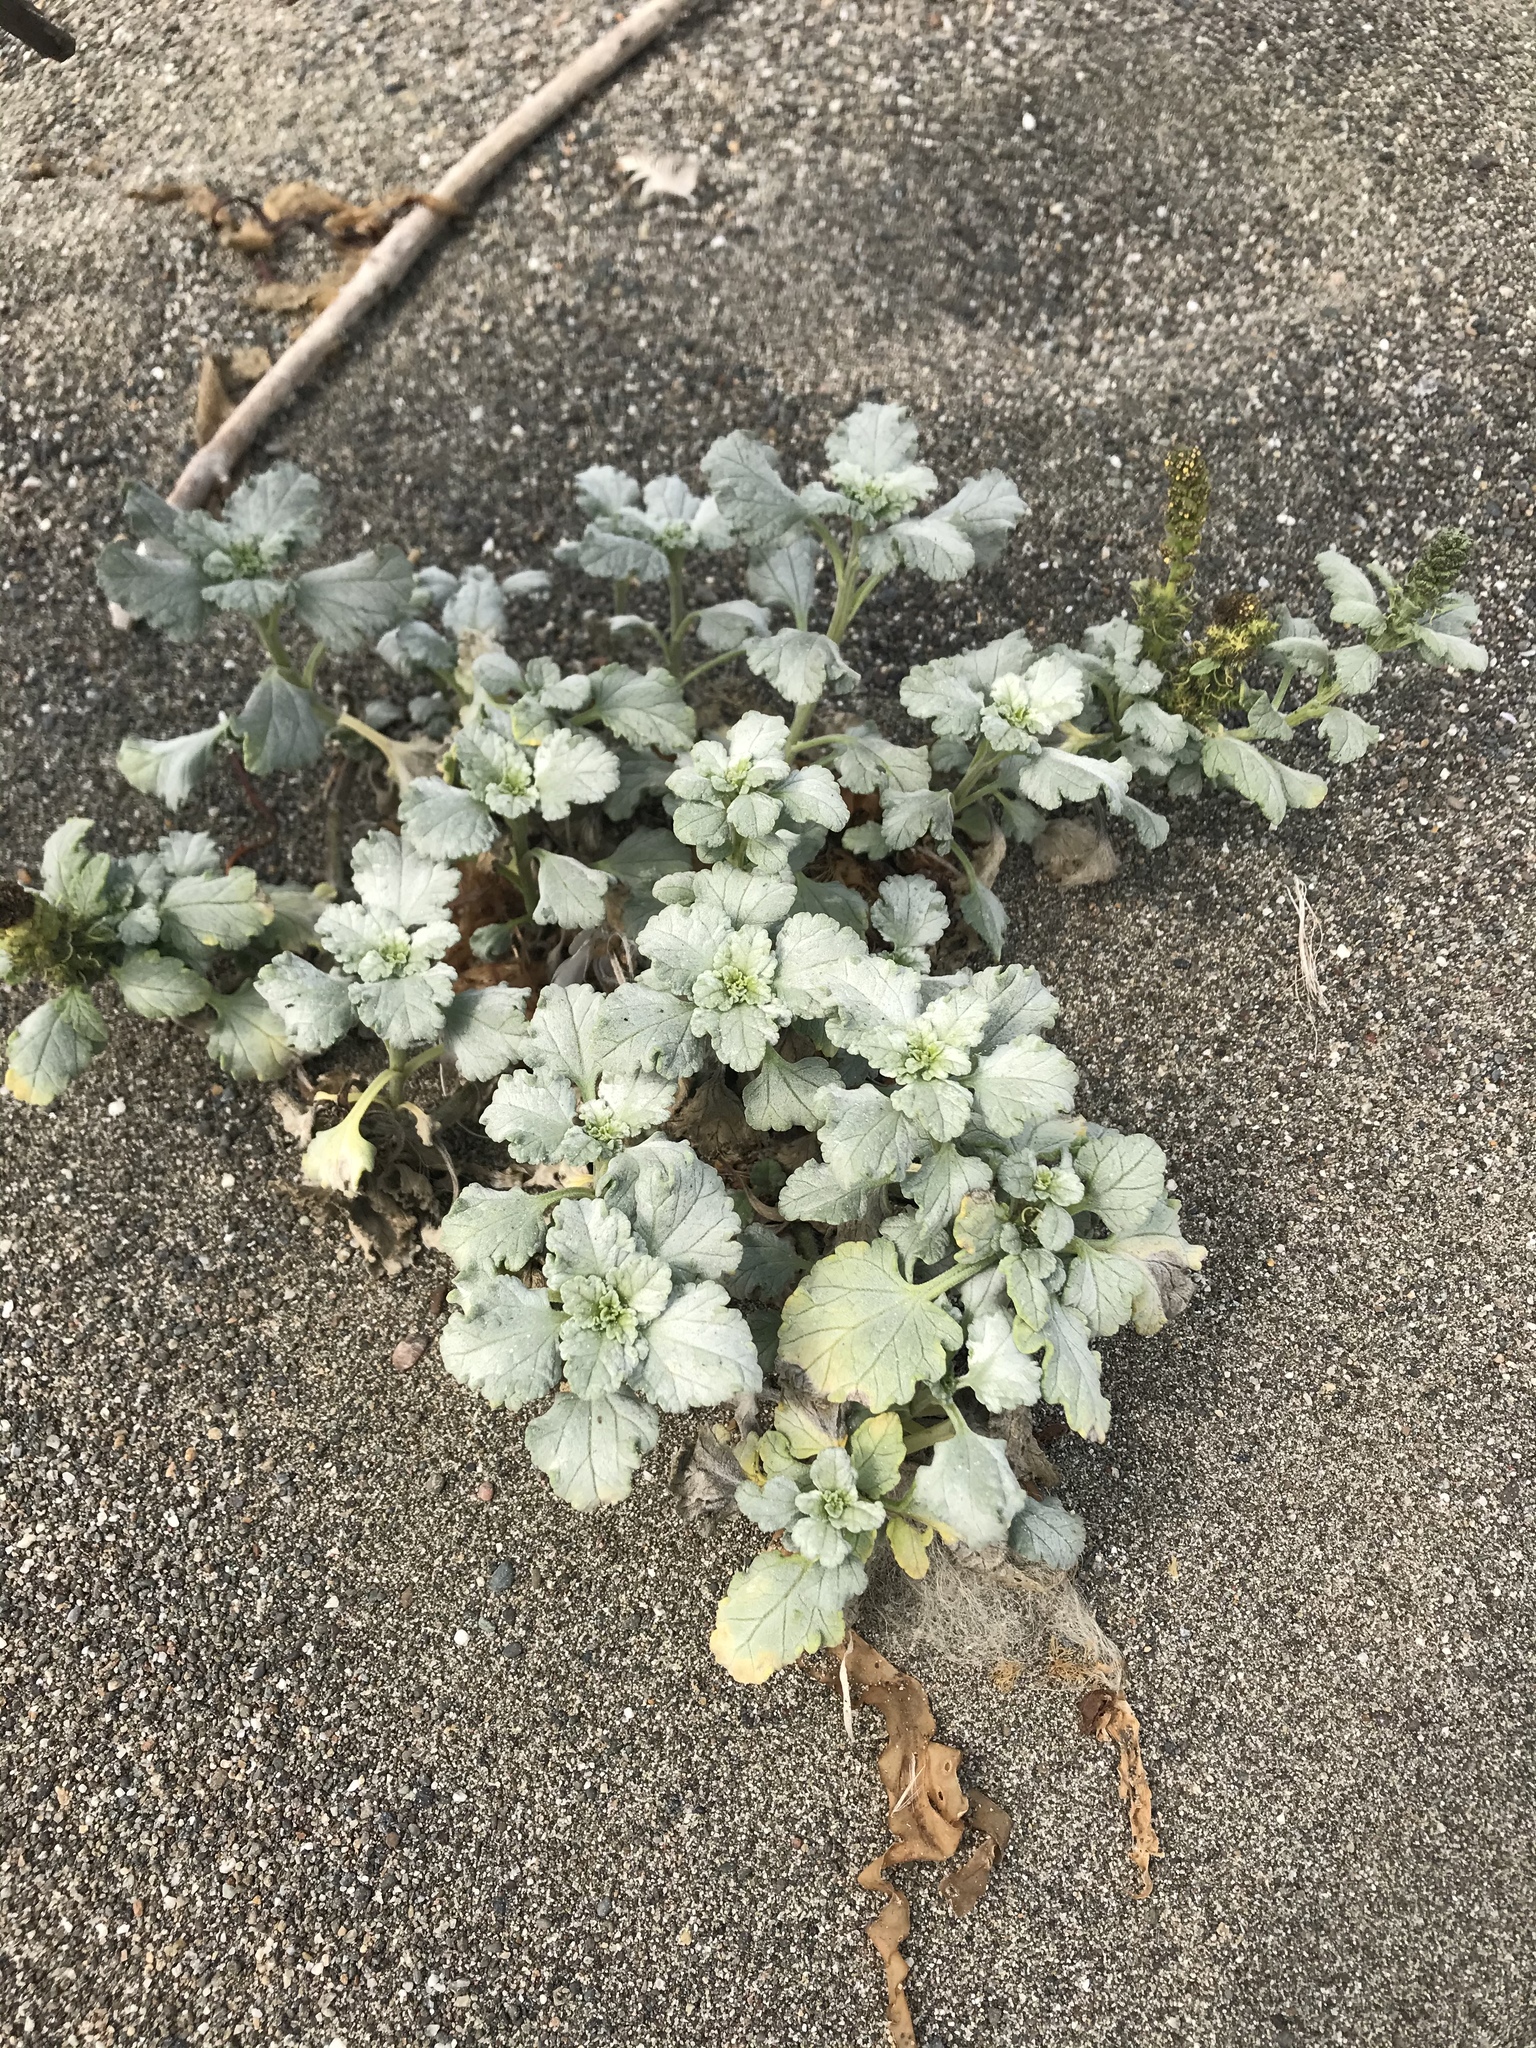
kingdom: Plantae
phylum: Tracheophyta
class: Magnoliopsida
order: Asterales
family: Asteraceae
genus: Ambrosia
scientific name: Ambrosia chamissonis
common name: Beachbur
